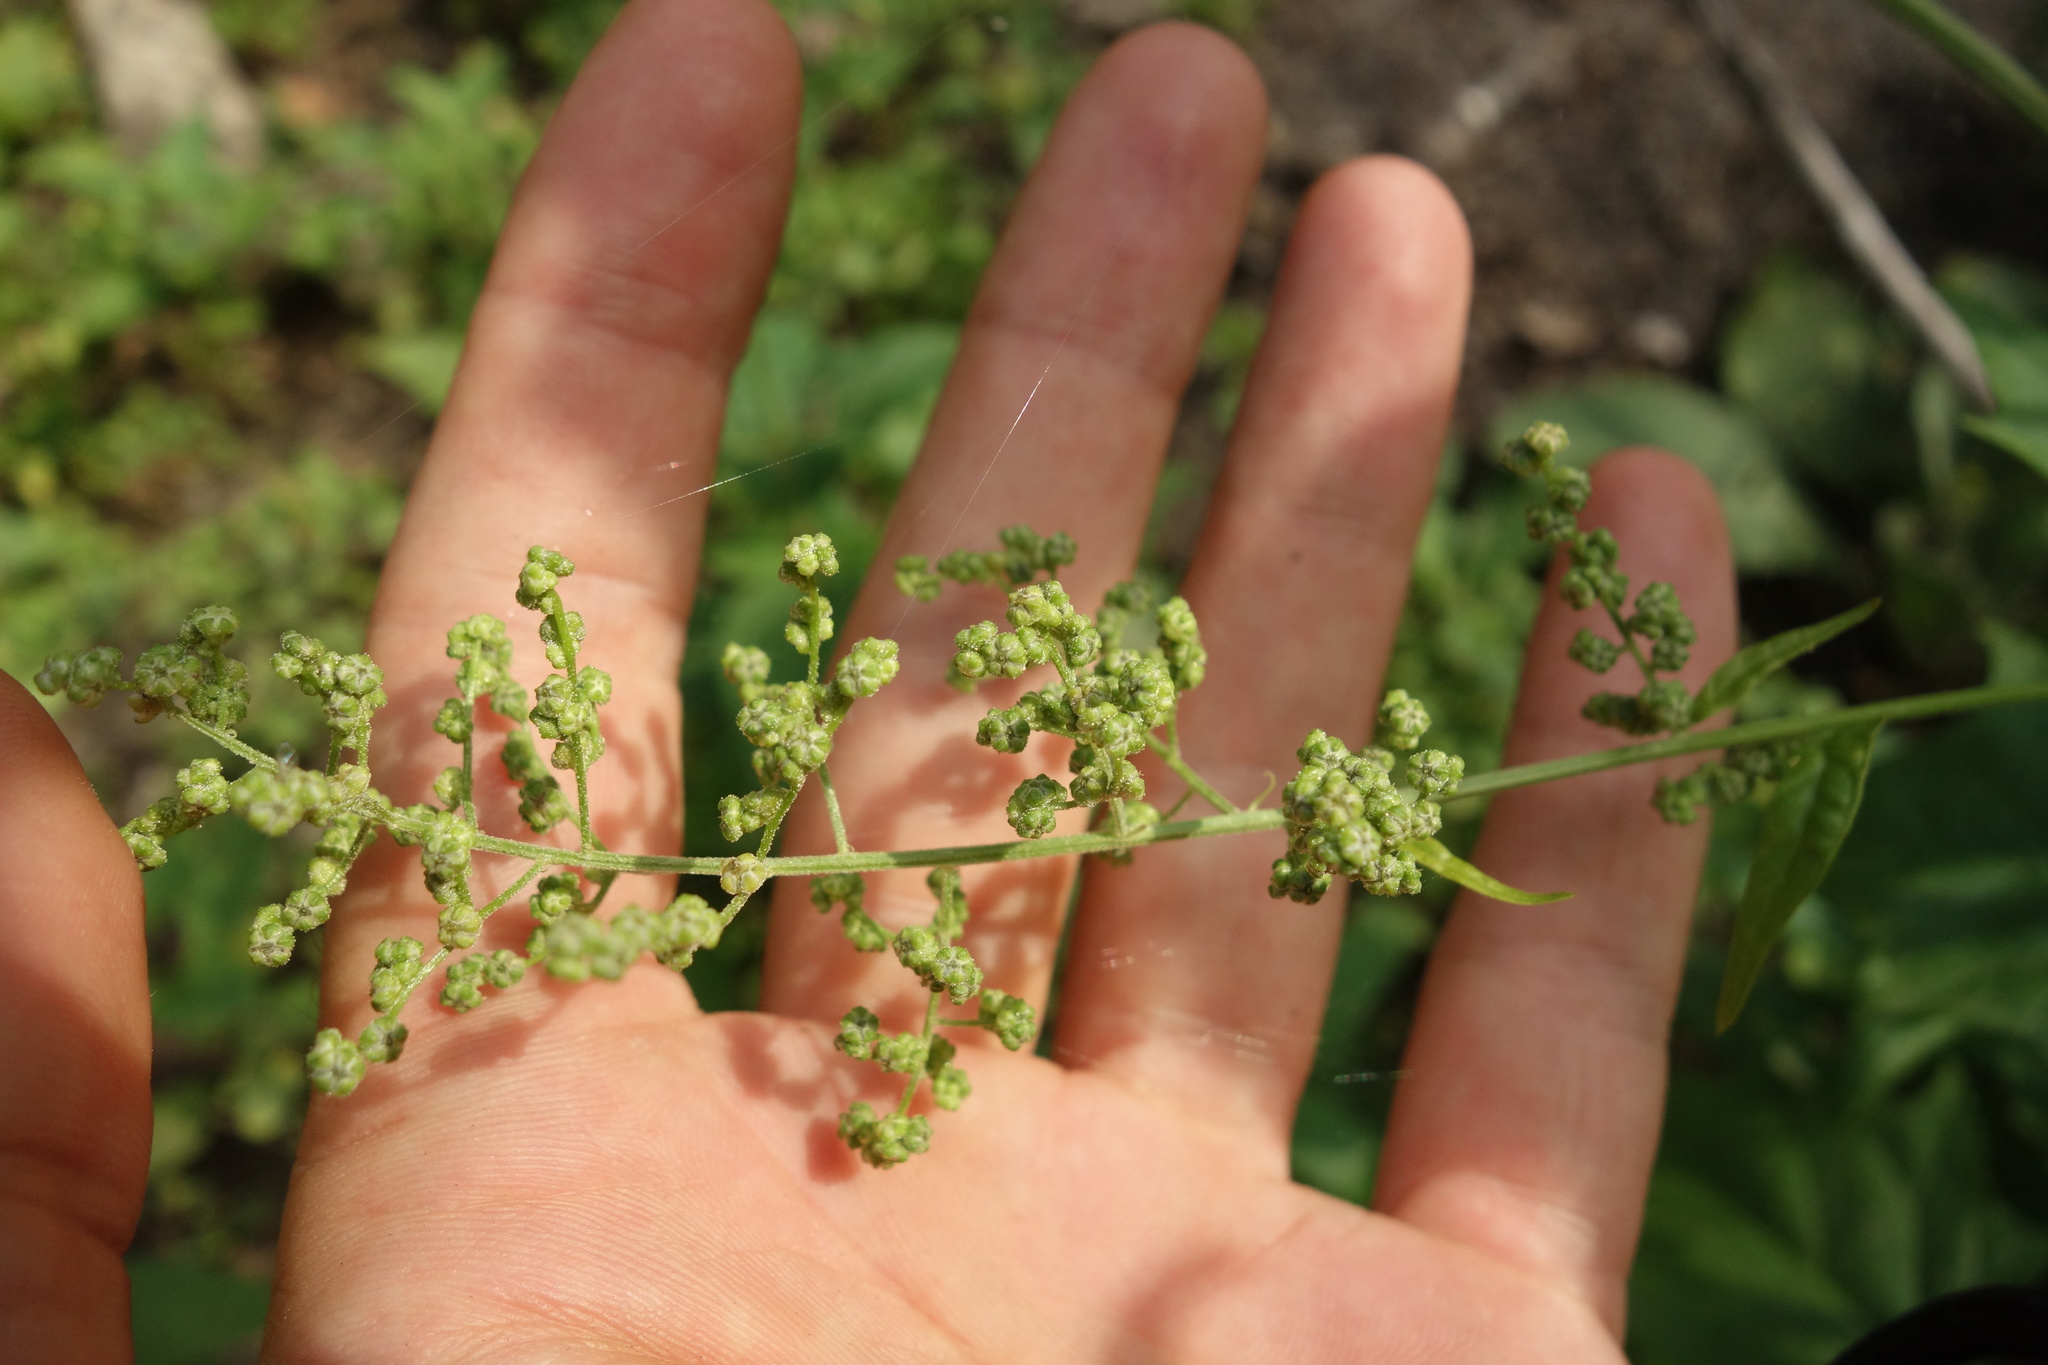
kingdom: Plantae
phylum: Tracheophyta
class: Magnoliopsida
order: Caryophyllales
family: Amaranthaceae
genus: Chenopodiastrum
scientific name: Chenopodiastrum hybridum
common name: Mapleleaf goosefoot
